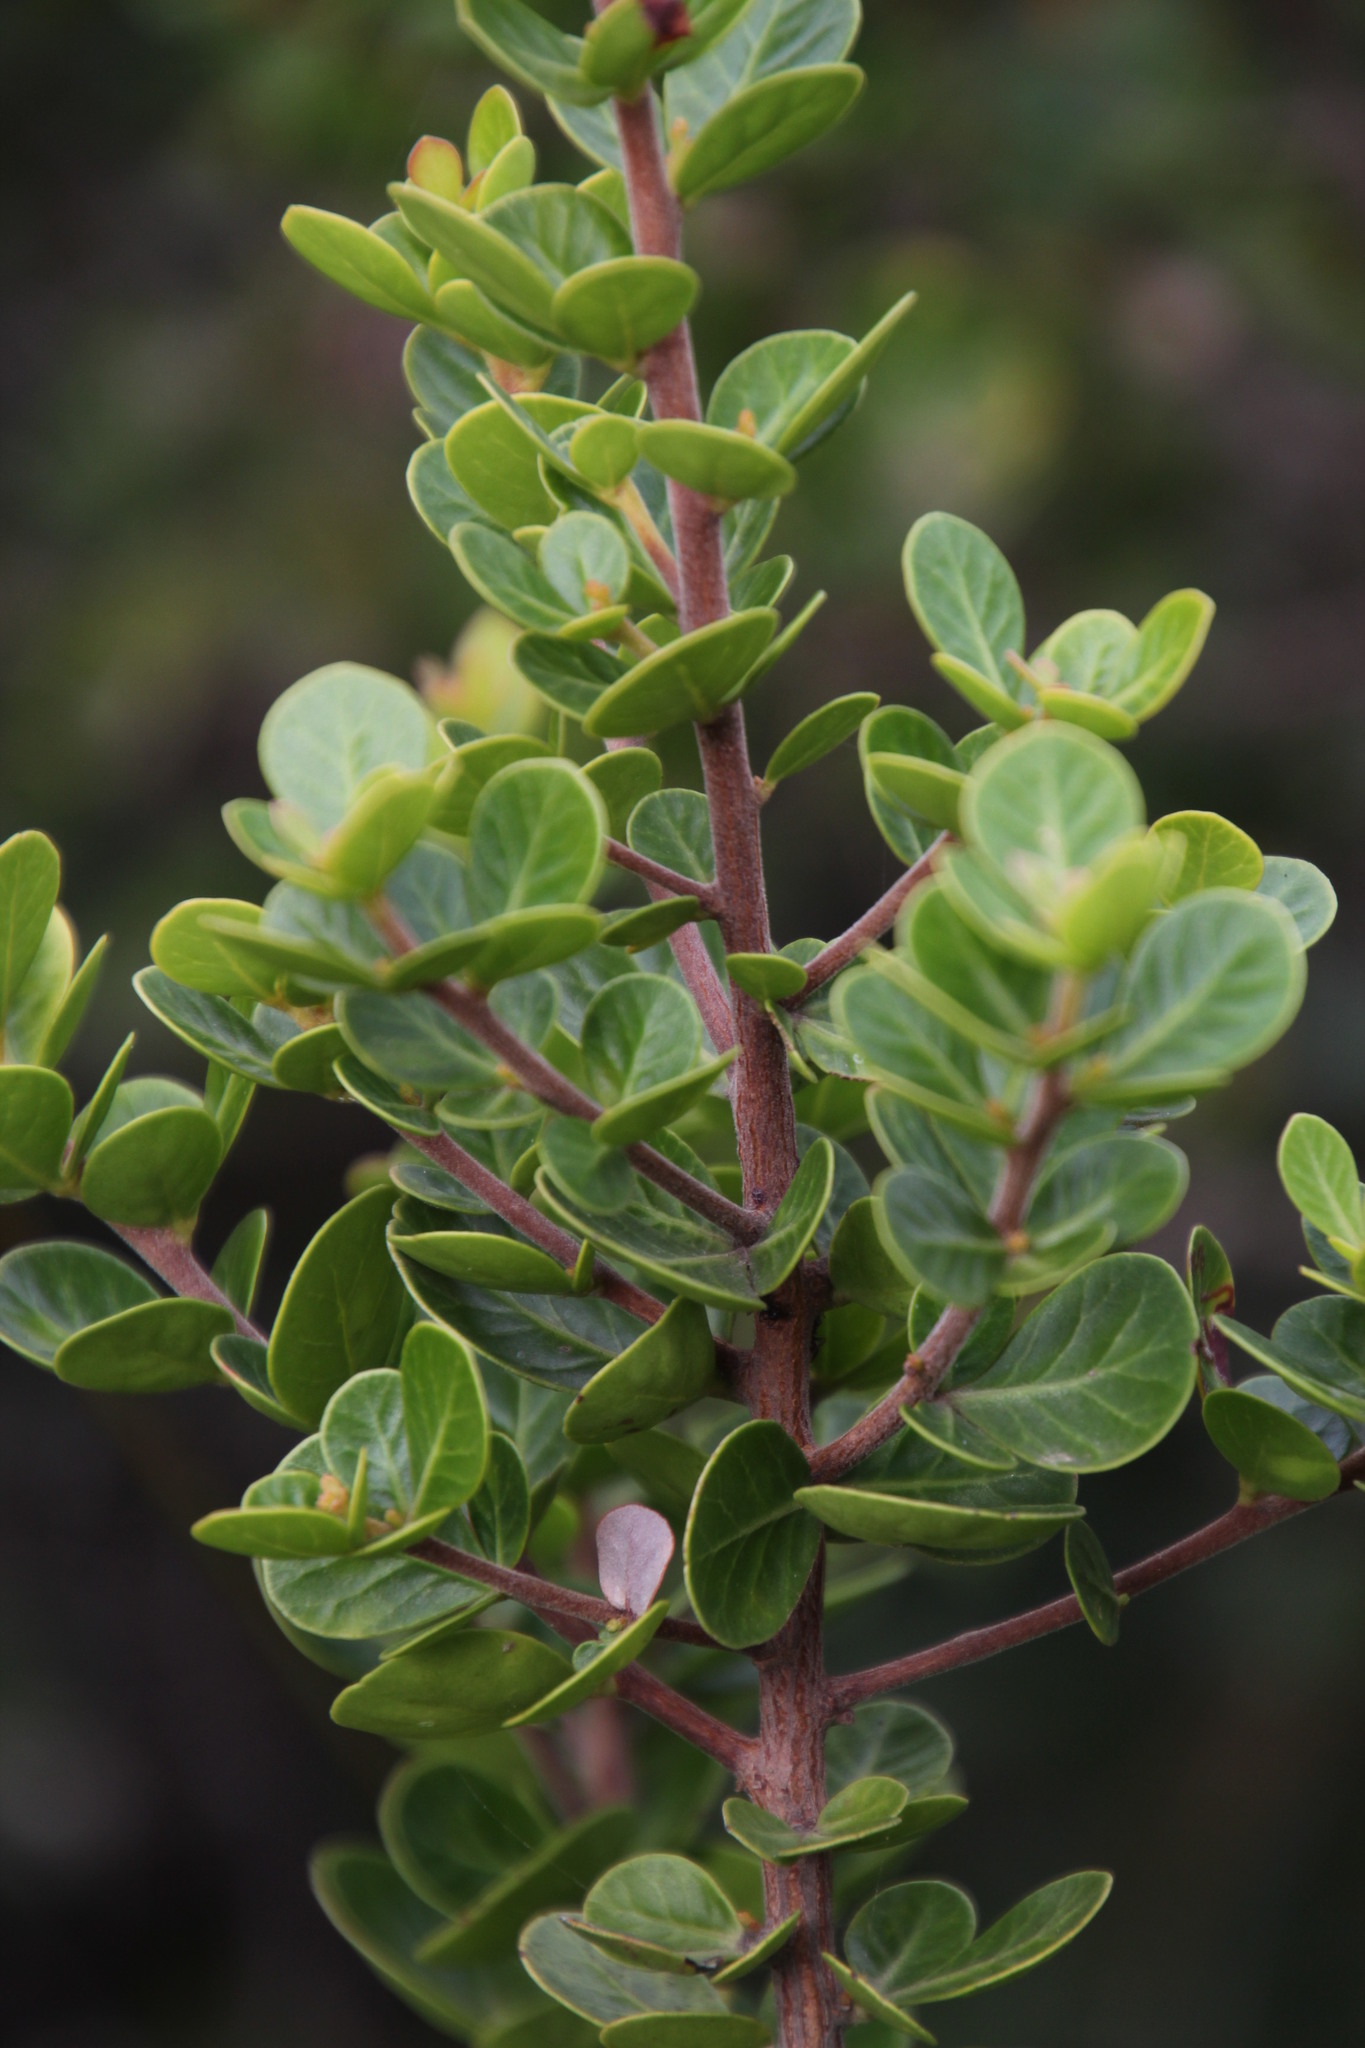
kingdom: Plantae
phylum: Tracheophyta
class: Magnoliopsida
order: Sapindales
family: Anacardiaceae
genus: Searsia
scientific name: Searsia lucida
